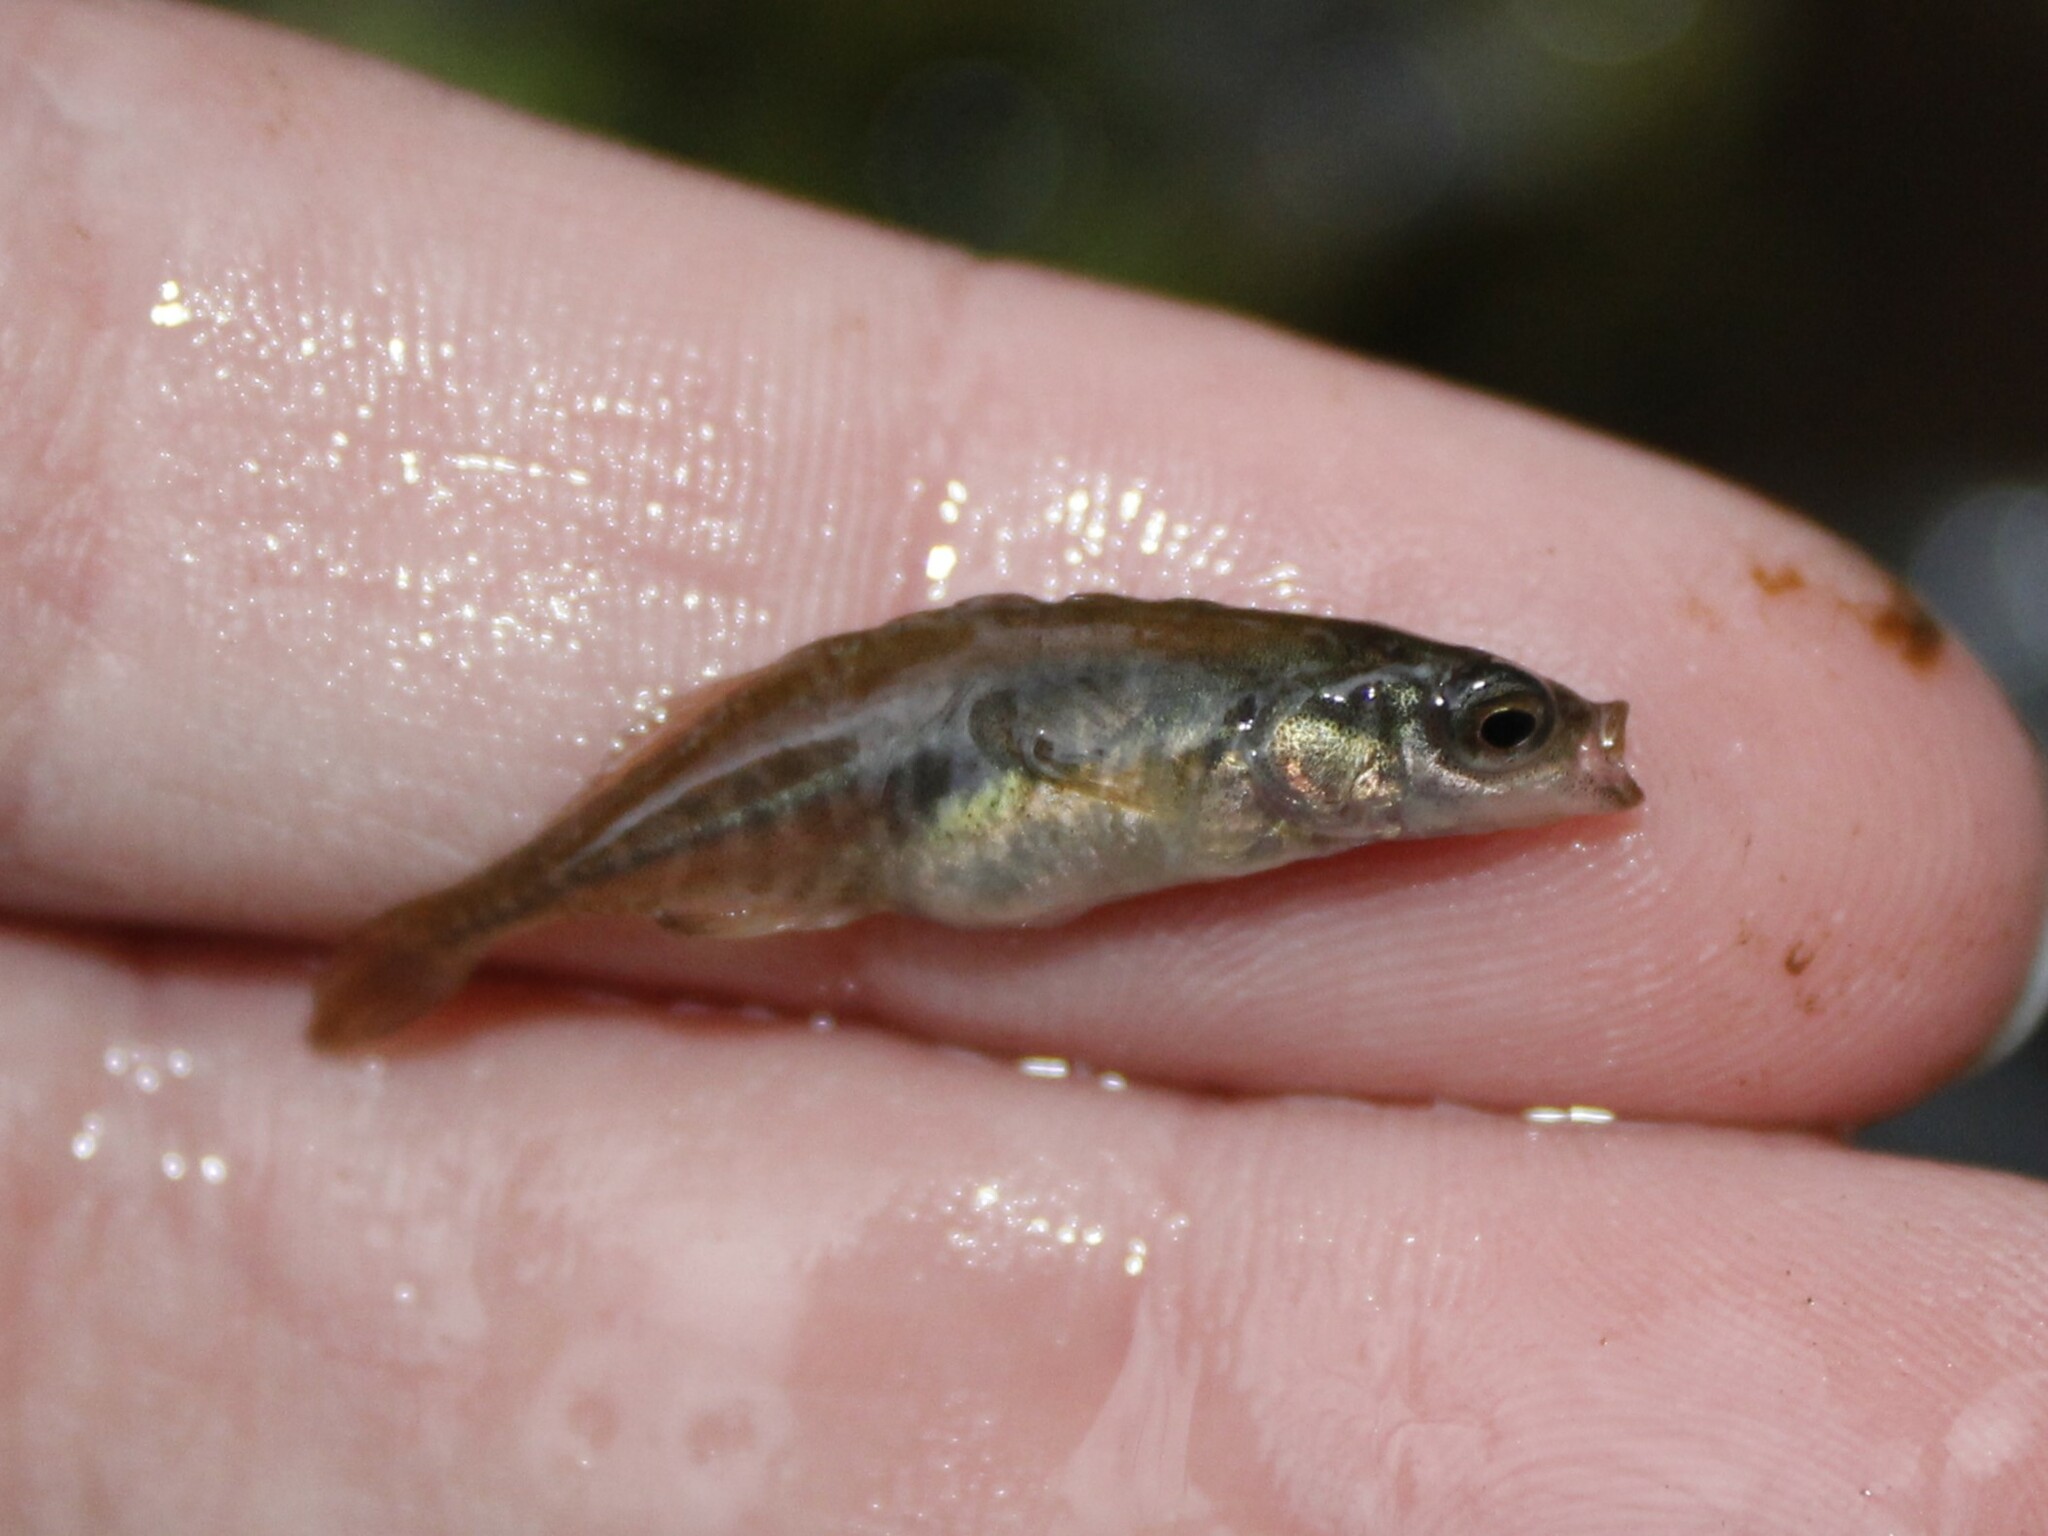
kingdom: Animalia
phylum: Chordata
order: Gasterosteiformes
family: Gasterosteidae
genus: Culaea
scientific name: Culaea inconstans
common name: Brook stickleback
